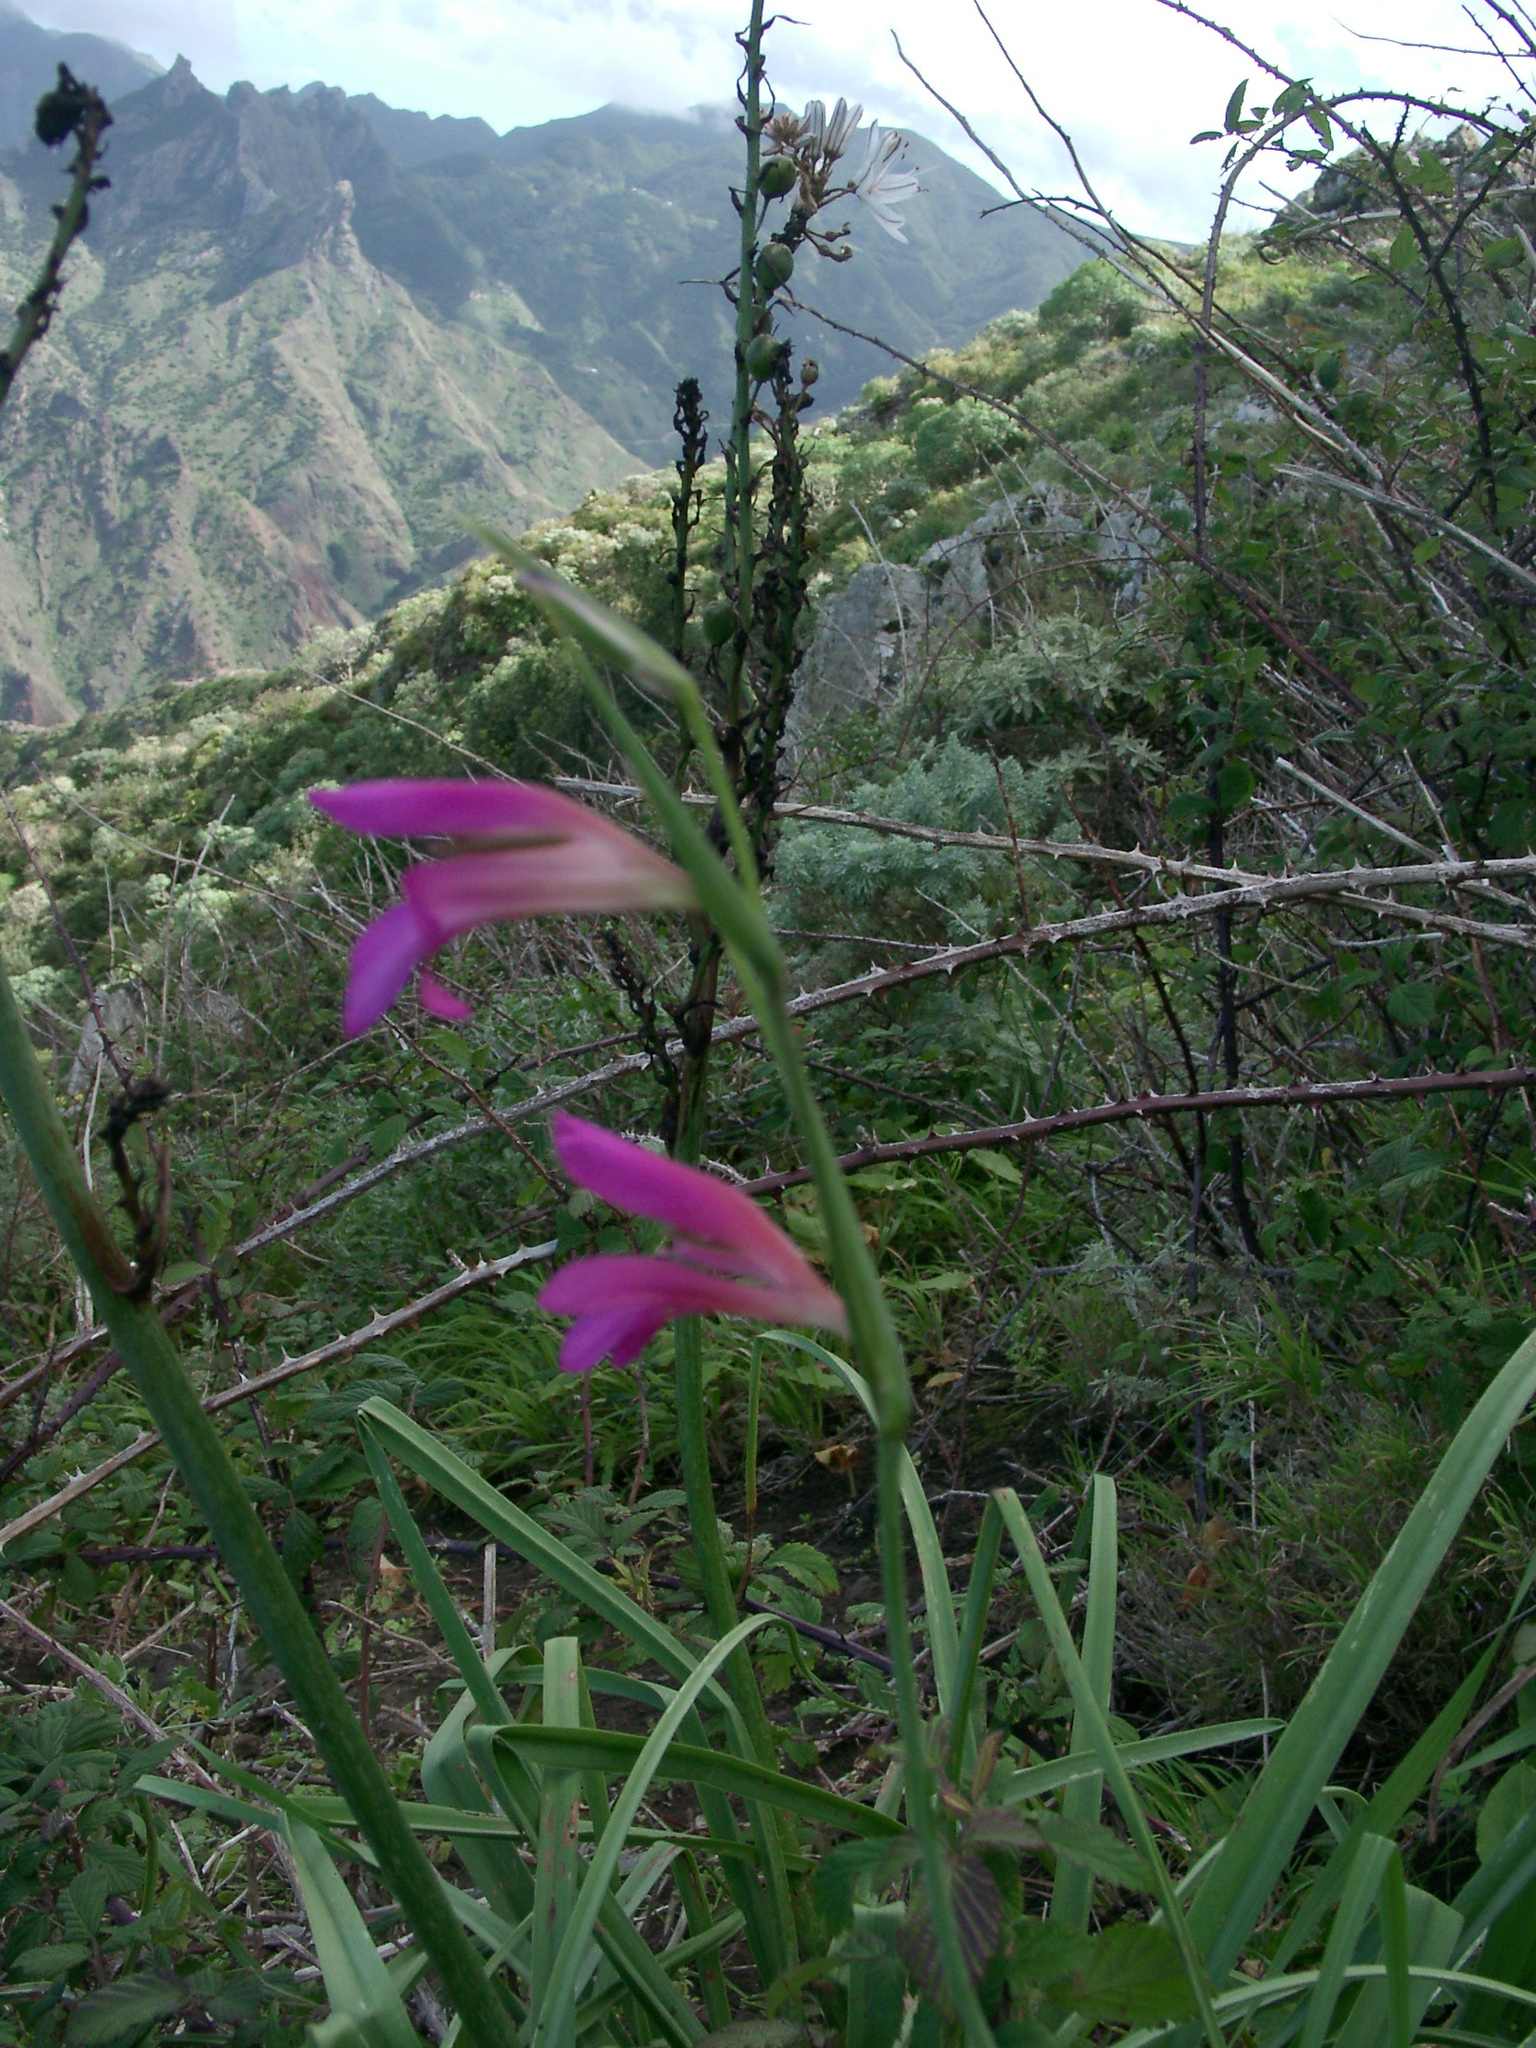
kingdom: Plantae
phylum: Tracheophyta
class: Liliopsida
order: Asparagales
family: Iridaceae
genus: Gladiolus
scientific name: Gladiolus italicus
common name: Field gladiolus
